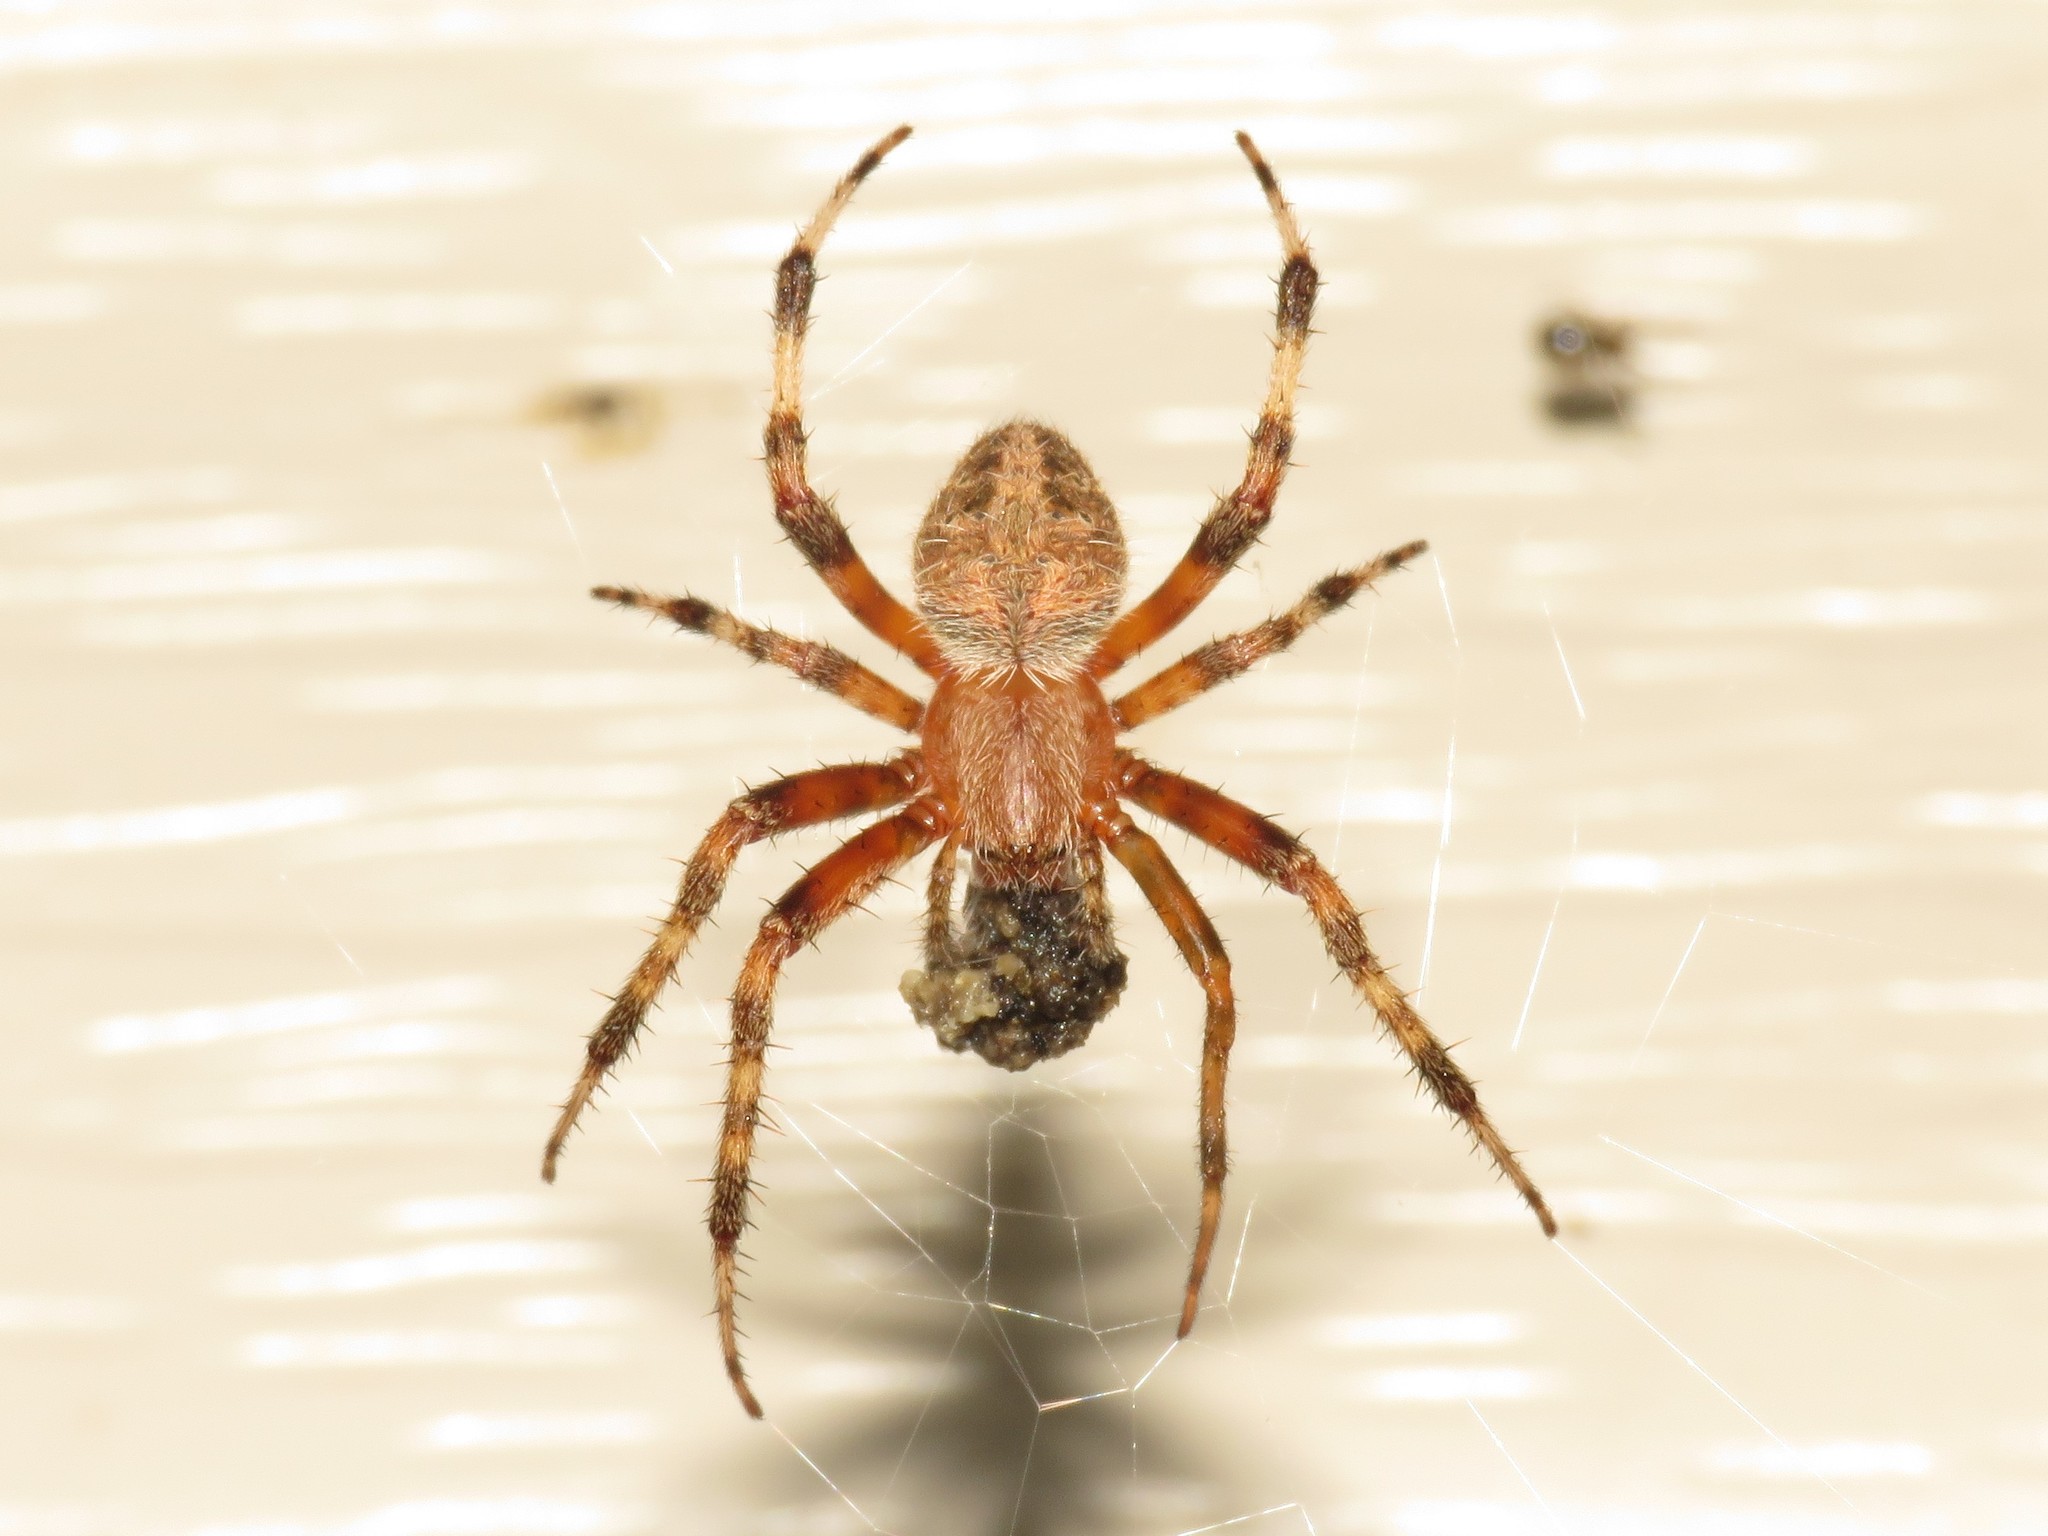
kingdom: Animalia
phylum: Arthropoda
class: Arachnida
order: Araneae
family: Araneidae
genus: Neoscona
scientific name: Neoscona crucifera
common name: Spotted orbweaver
